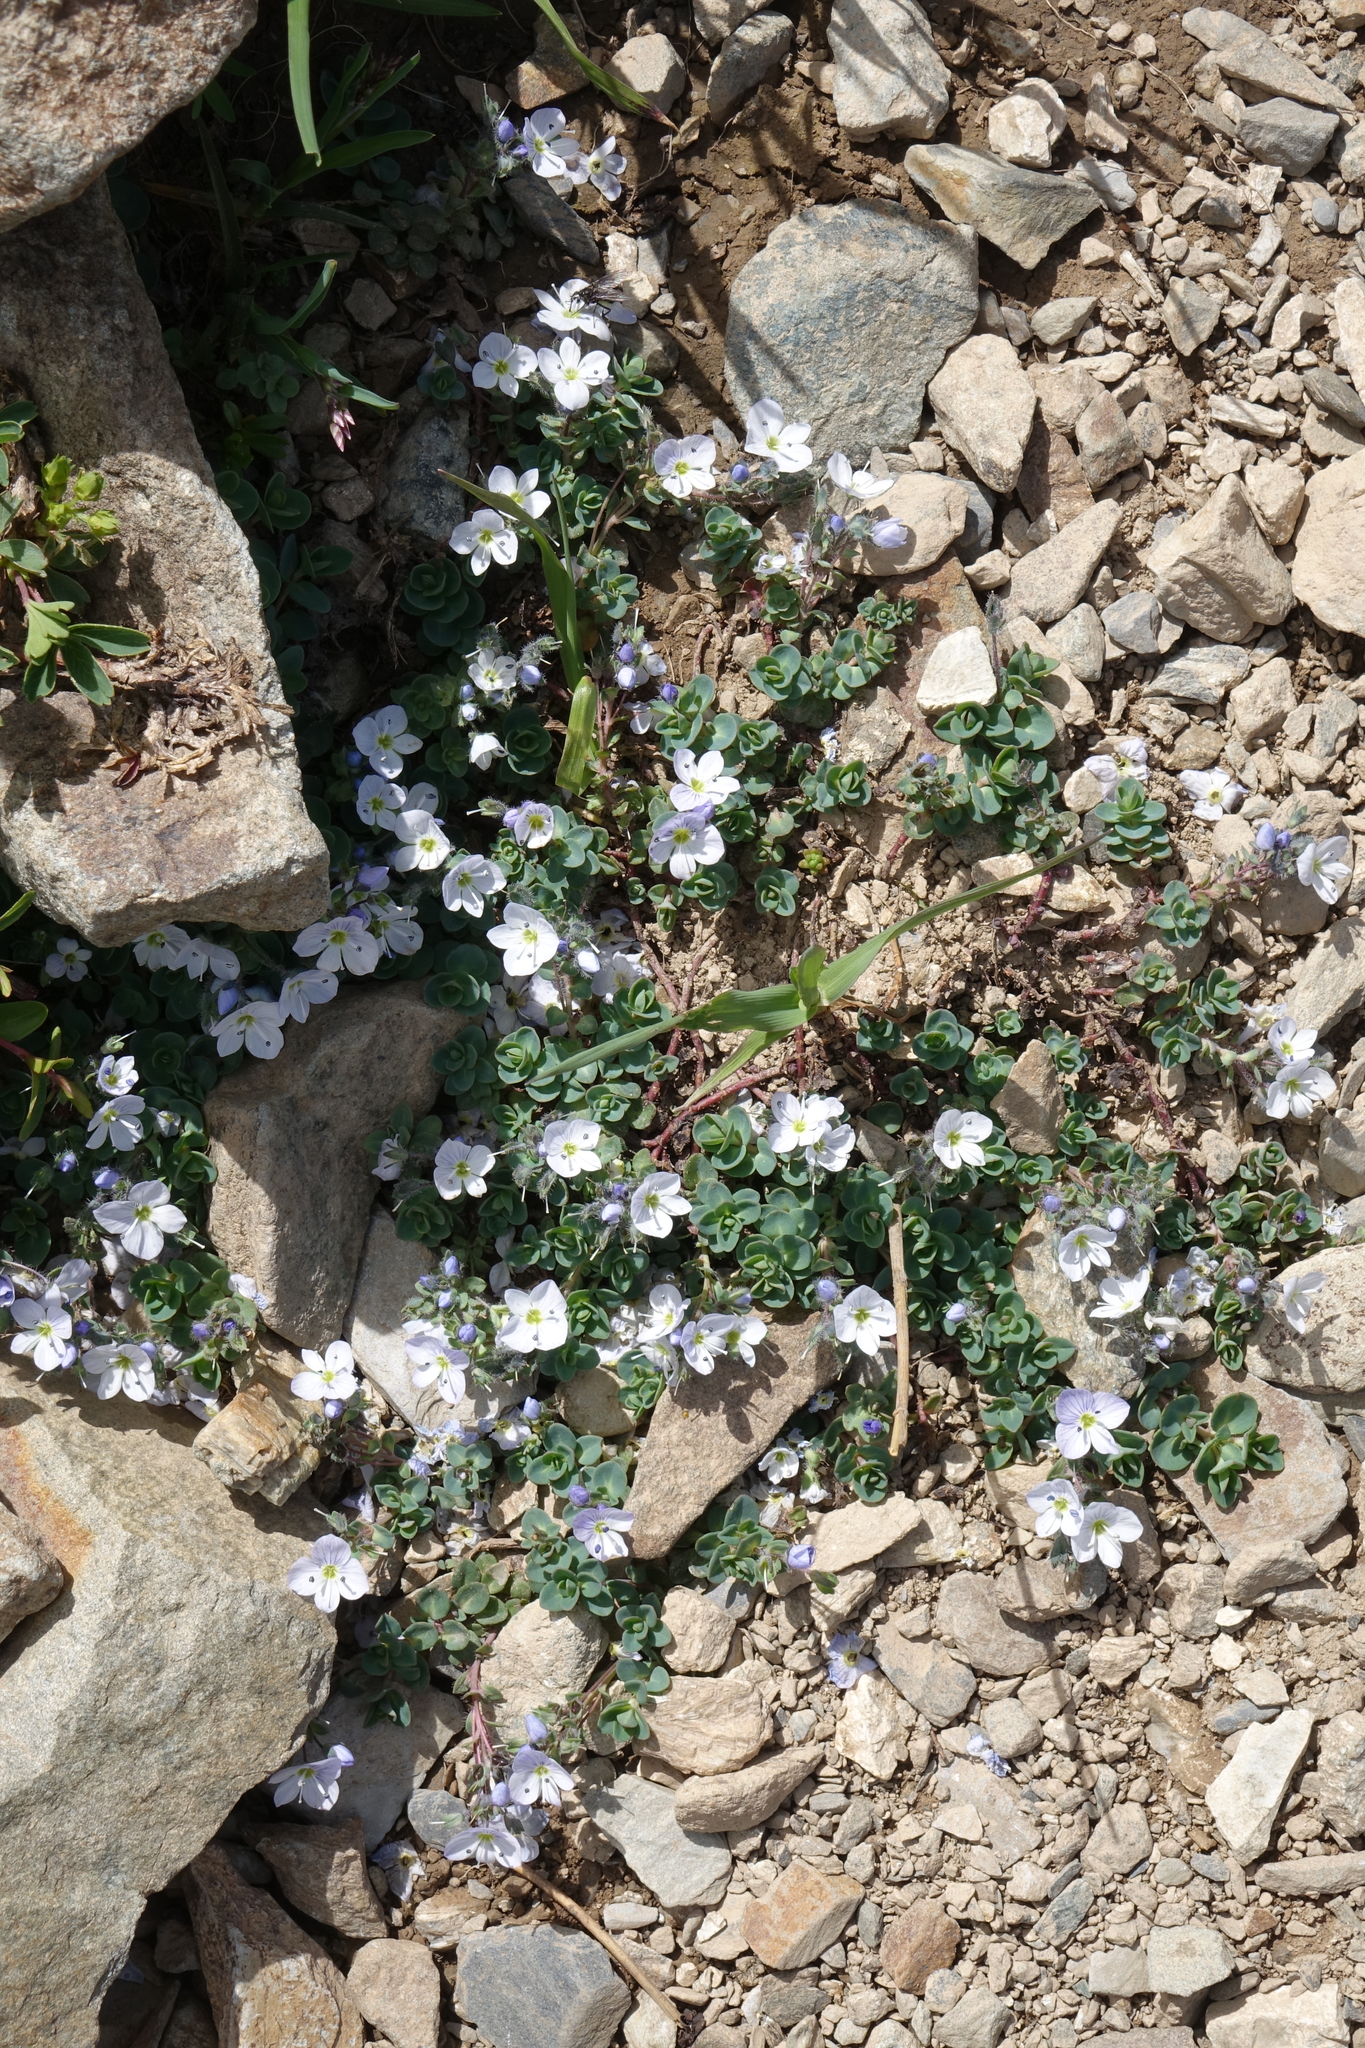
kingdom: Plantae
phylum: Tracheophyta
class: Magnoliopsida
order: Lamiales
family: Plantaginaceae
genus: Veronica
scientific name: Veronica telephiifolia
